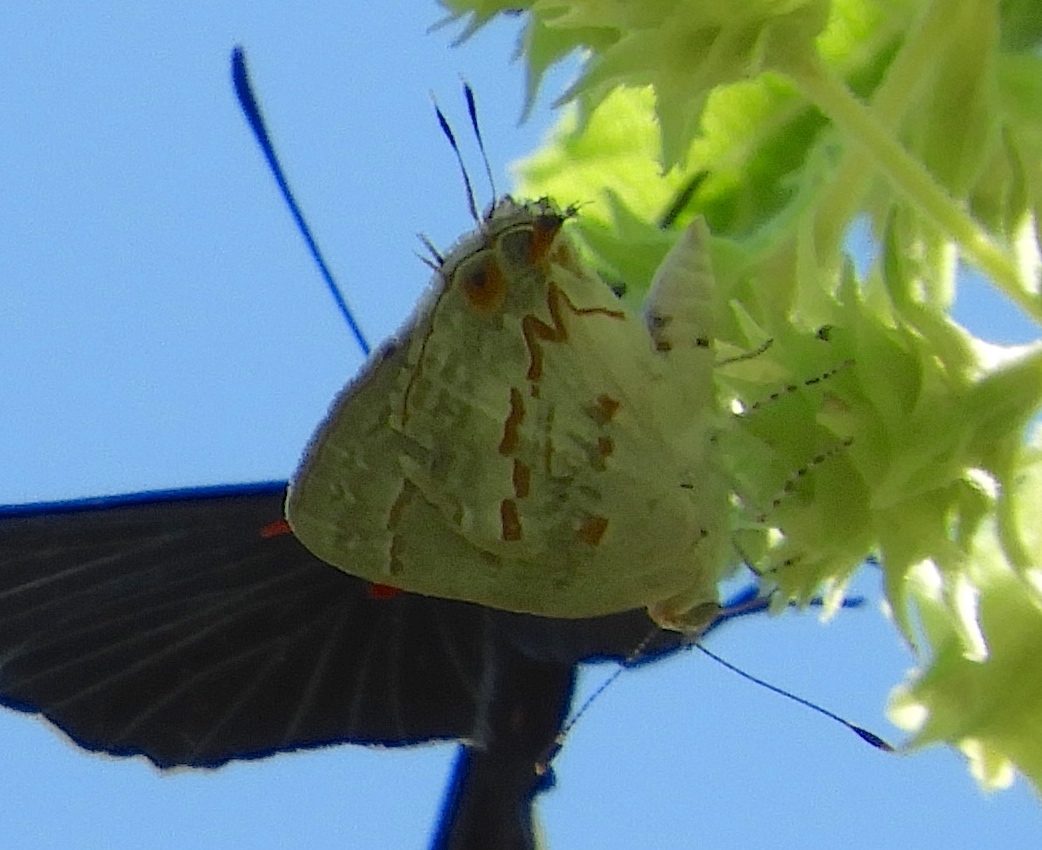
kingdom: Animalia
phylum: Arthropoda
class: Insecta
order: Lepidoptera
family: Lycaenidae
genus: Ministrymon
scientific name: Ministrymon
